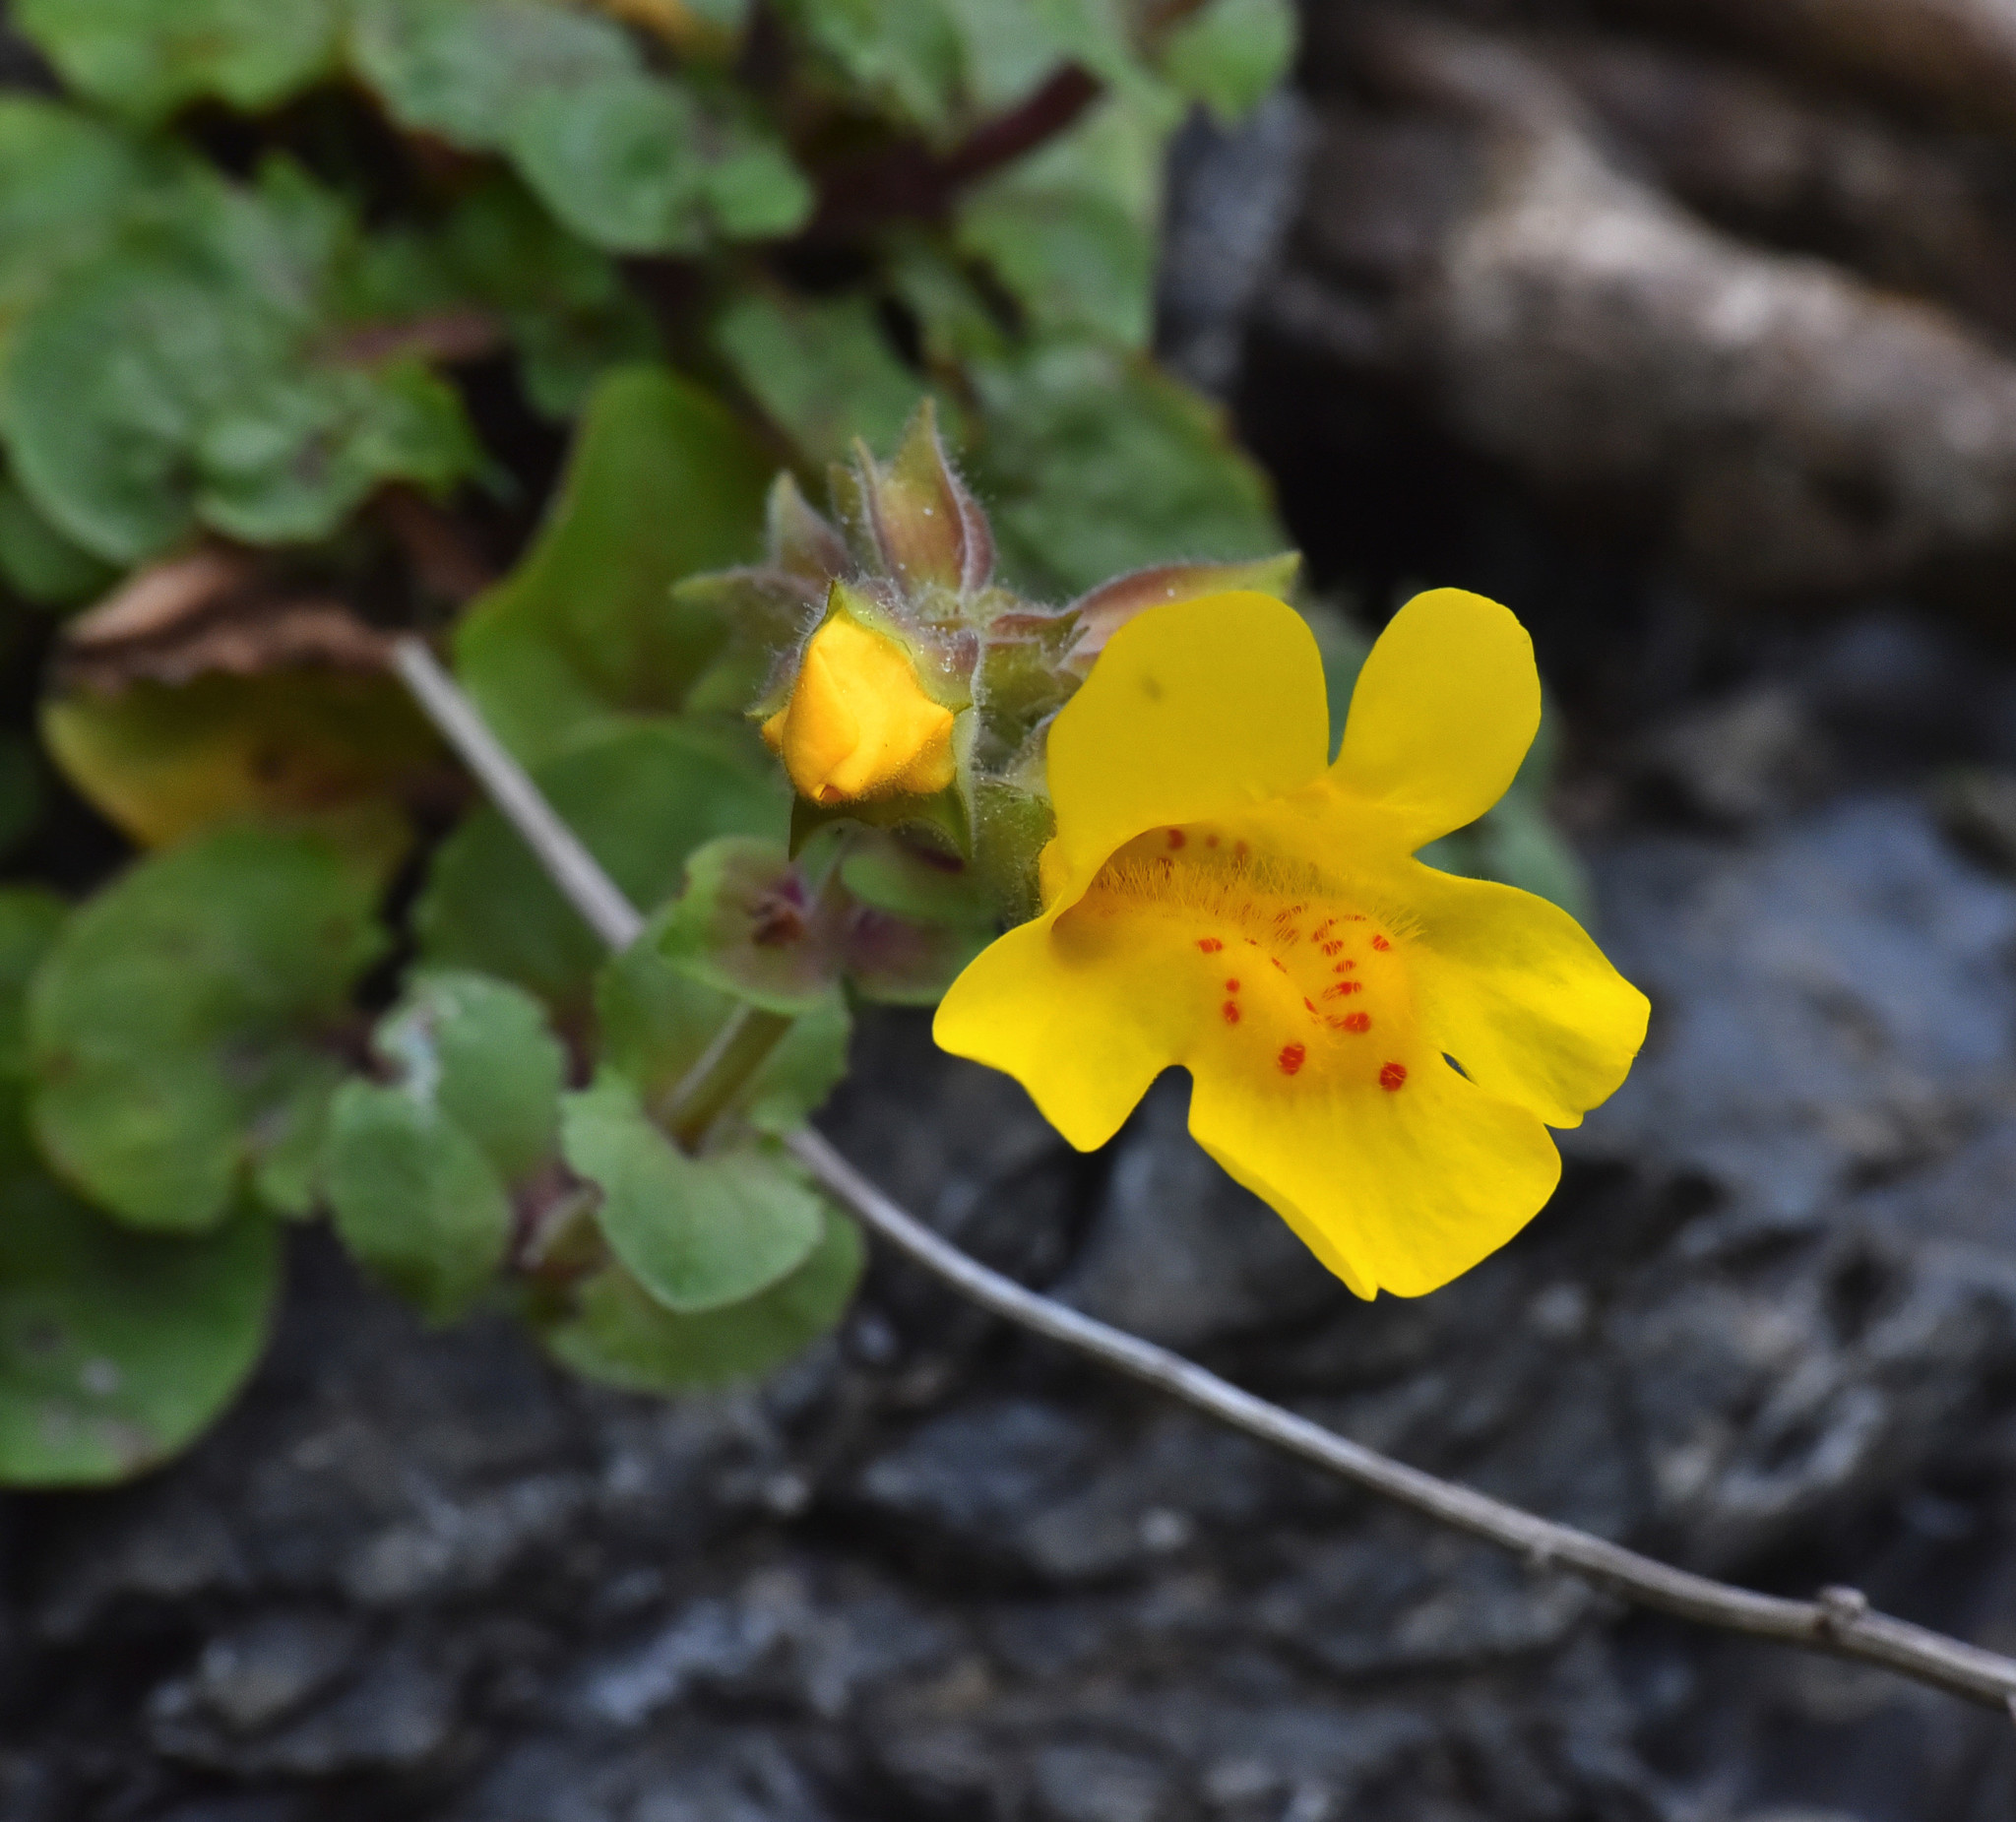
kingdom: Plantae
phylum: Tracheophyta
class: Magnoliopsida
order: Lamiales
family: Phrymaceae
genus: Erythranthe
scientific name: Erythranthe grandis
